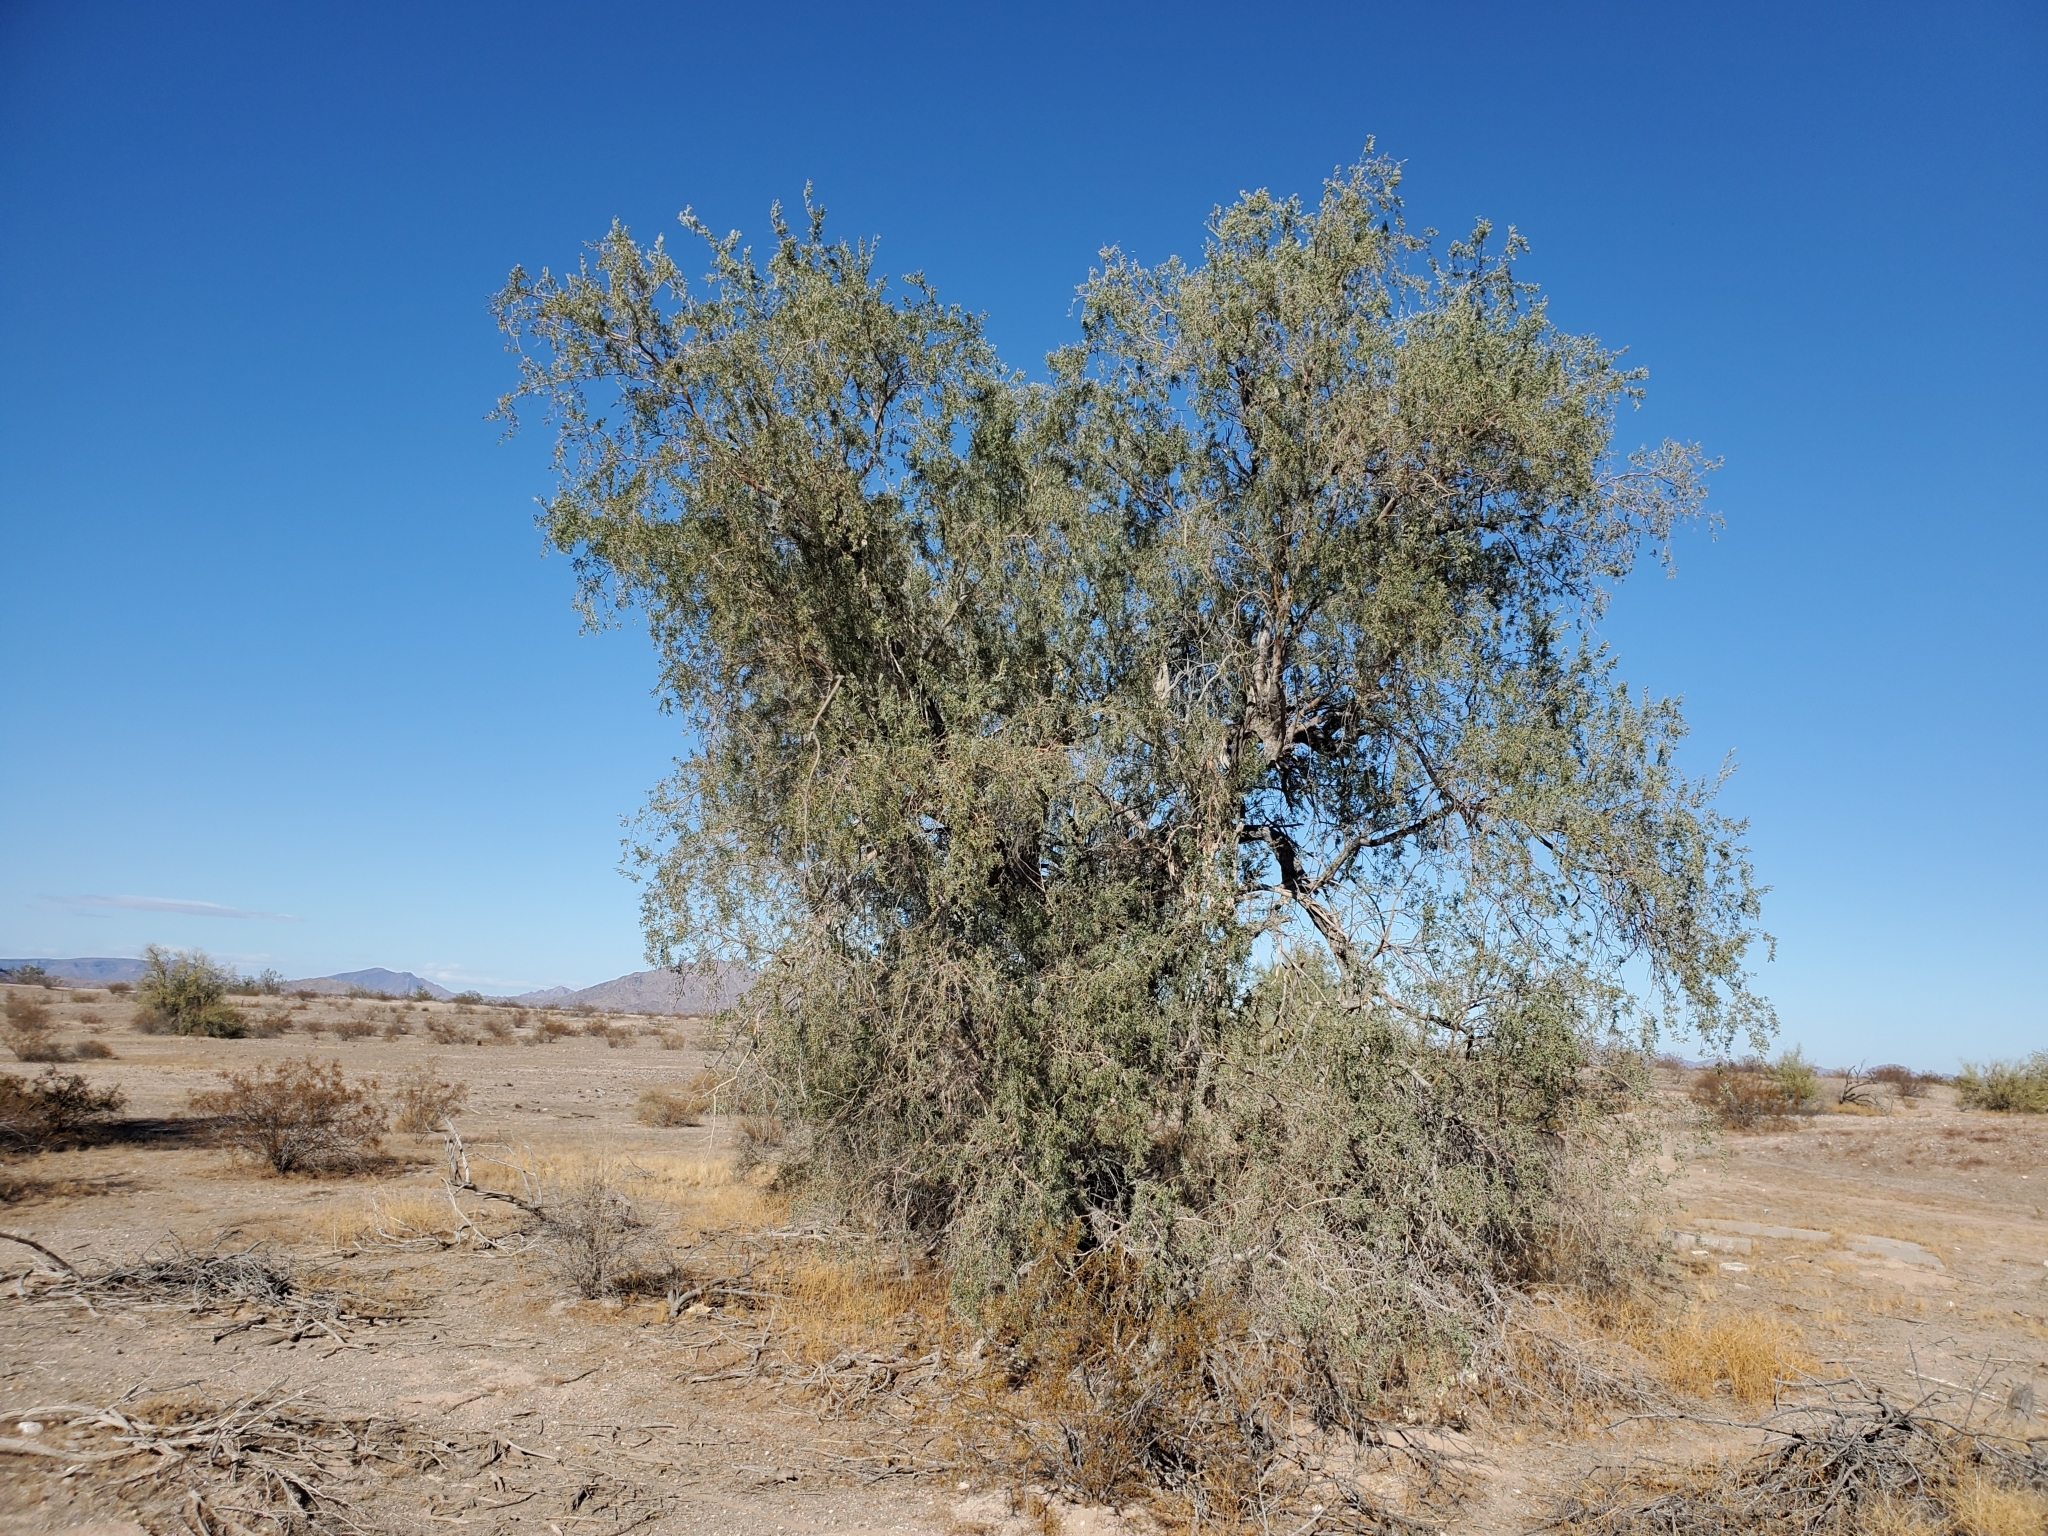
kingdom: Plantae
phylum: Tracheophyta
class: Magnoliopsida
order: Fabales
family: Fabaceae
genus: Olneya
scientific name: Olneya tesota
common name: Desert ironwood
